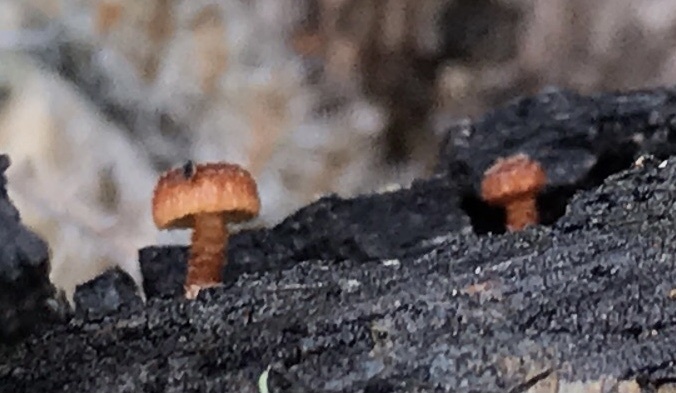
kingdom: Fungi
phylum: Basidiomycota
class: Agaricomycetes
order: Agaricales
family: Tubariaceae
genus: Phaeomarasmius
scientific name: Phaeomarasmius erinaceus
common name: Hedgehog scalycap
